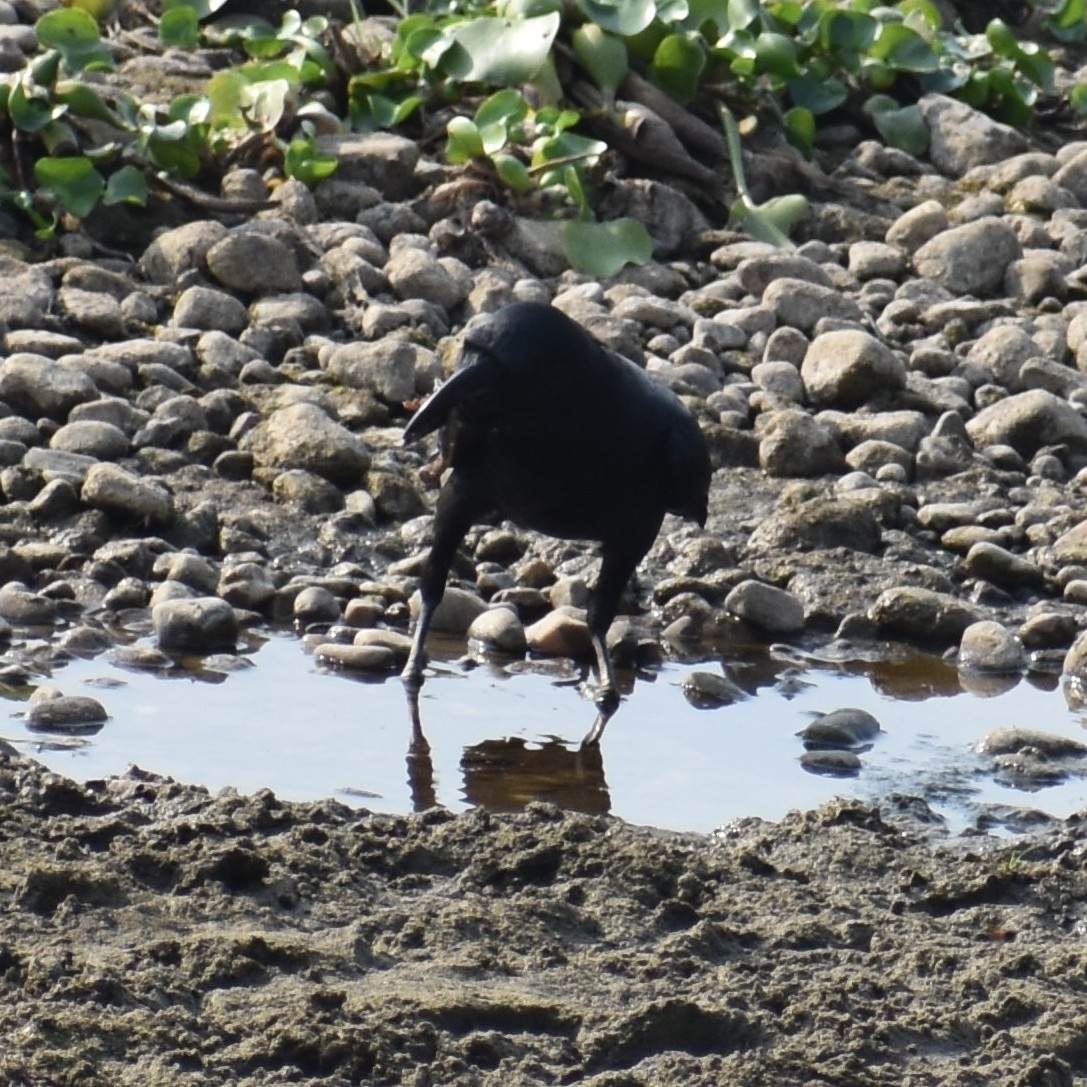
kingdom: Animalia
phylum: Chordata
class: Aves
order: Passeriformes
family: Corvidae
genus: Corvus
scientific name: Corvus macrorhynchos
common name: Large-billed crow
